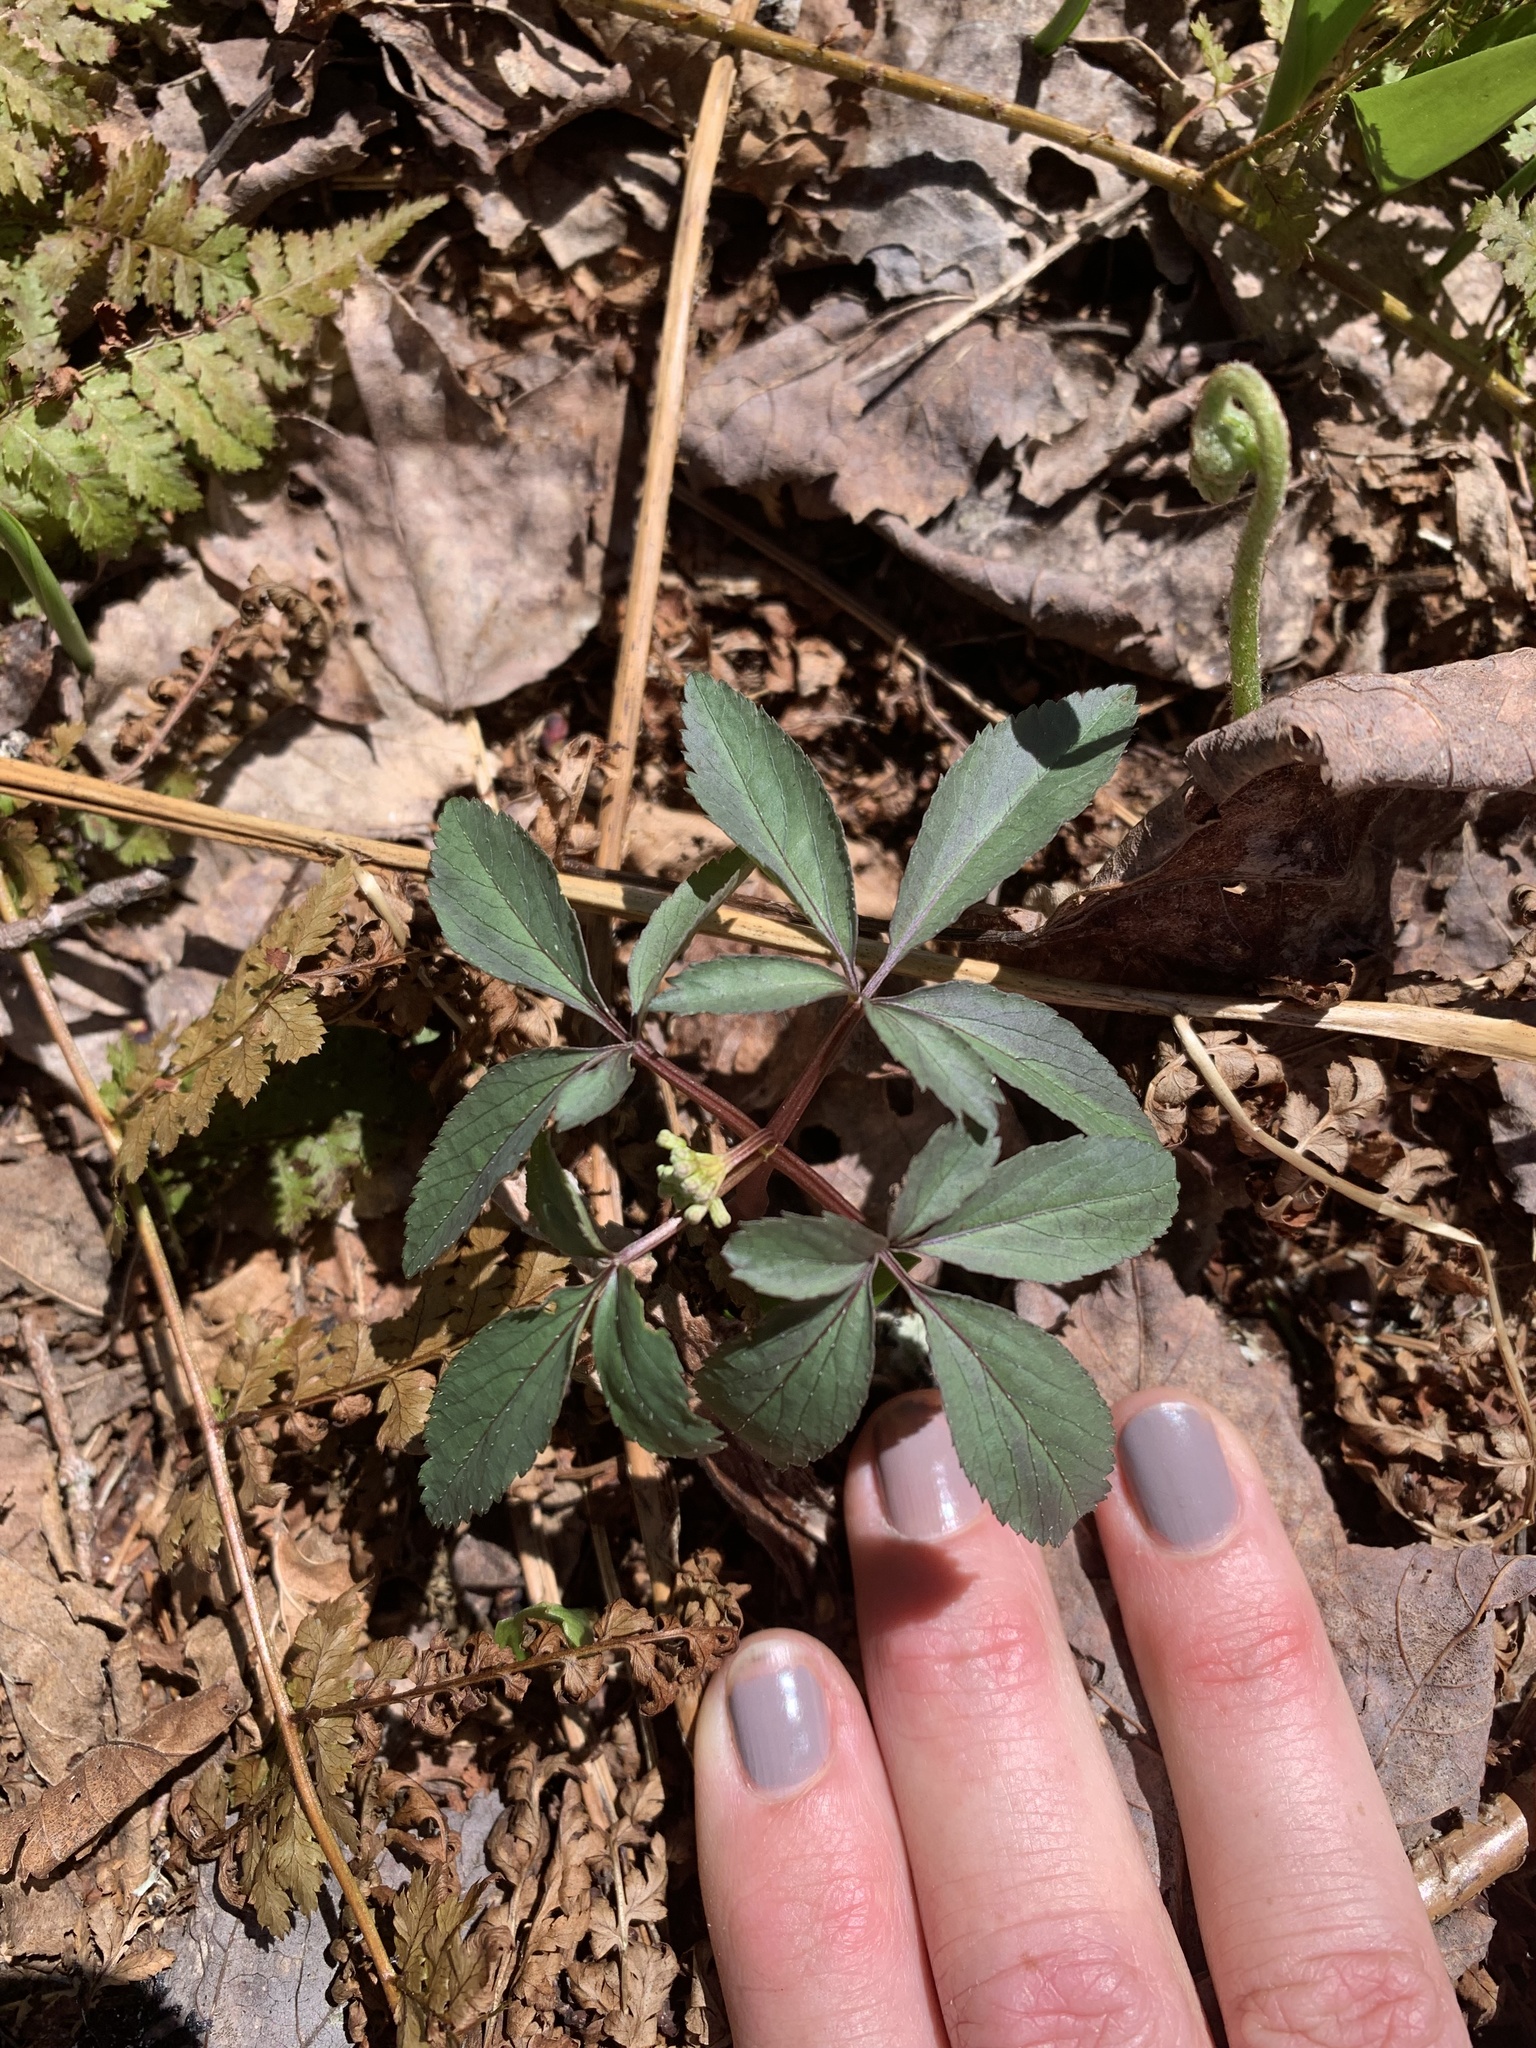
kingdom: Plantae
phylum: Tracheophyta
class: Magnoliopsida
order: Apiales
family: Araliaceae
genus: Panax
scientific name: Panax trifolius
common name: Dwarf ginseng
